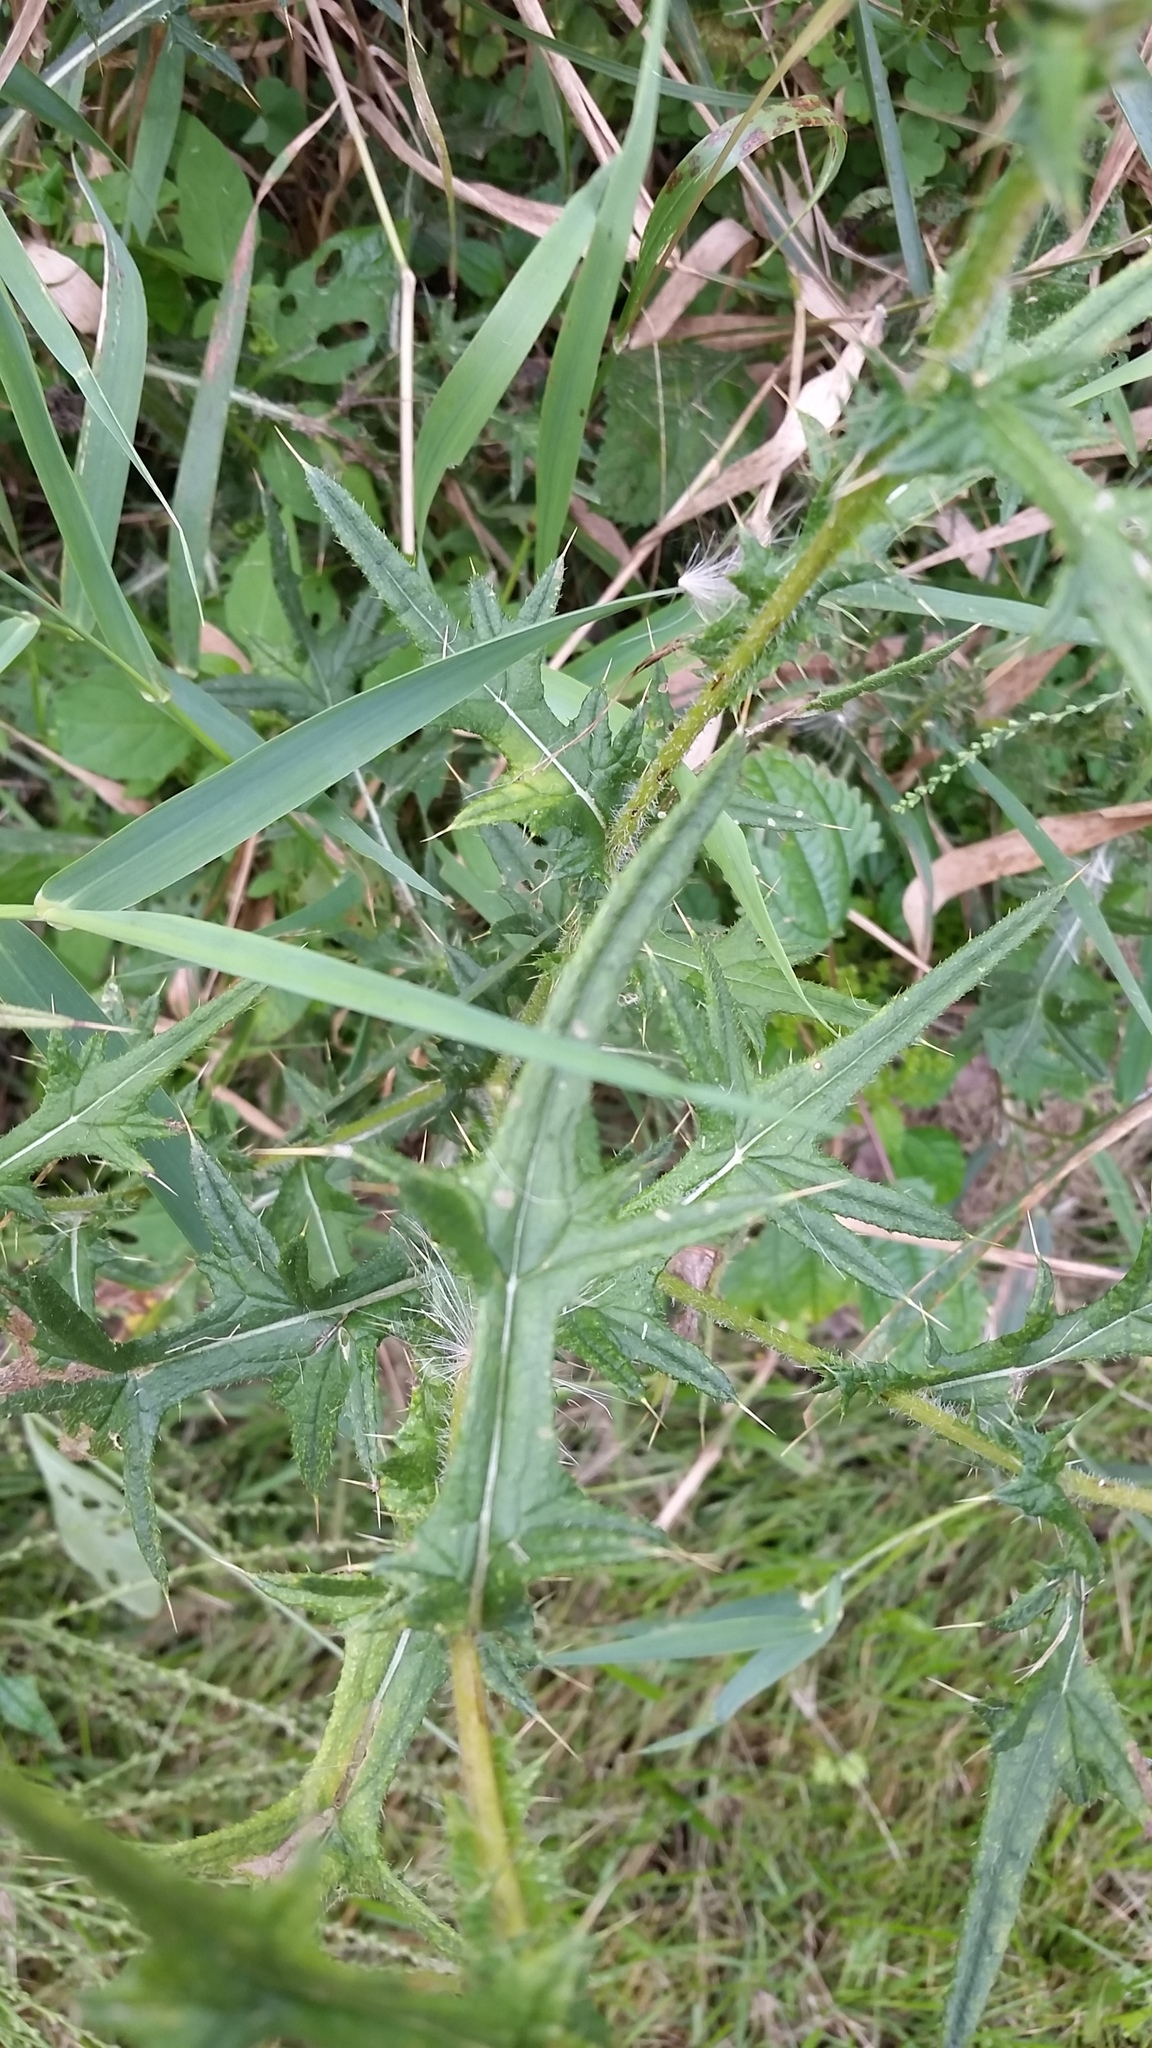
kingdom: Plantae
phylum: Tracheophyta
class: Magnoliopsida
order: Asterales
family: Asteraceae
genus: Cirsium
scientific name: Cirsium vulgare
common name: Bull thistle
